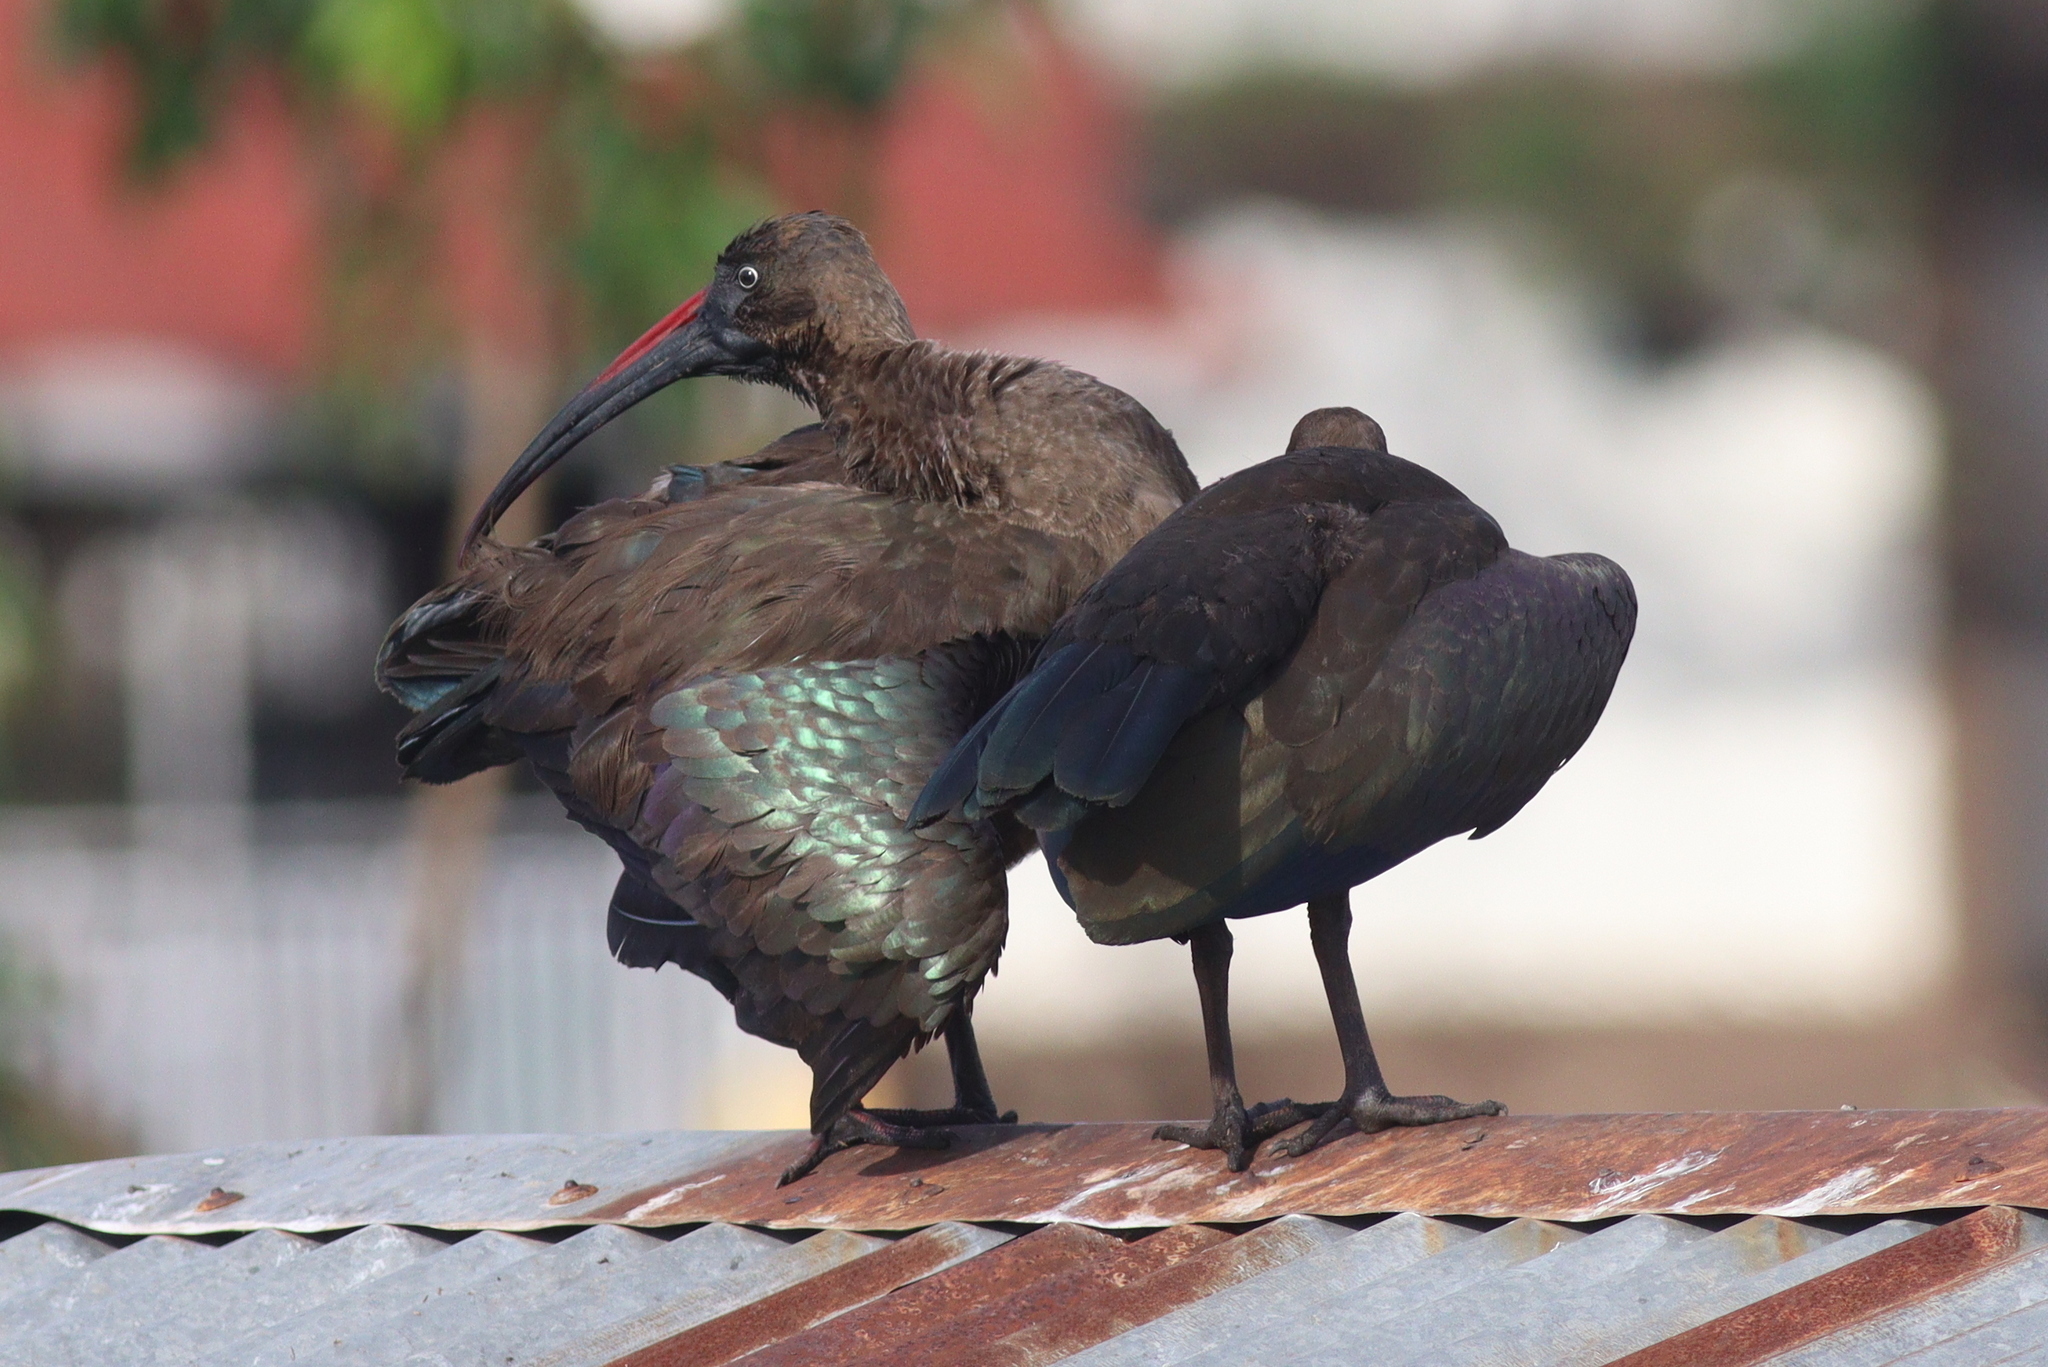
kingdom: Animalia
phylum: Chordata
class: Aves
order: Pelecaniformes
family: Threskiornithidae
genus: Bostrychia
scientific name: Bostrychia hagedash
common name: Hadada ibis
